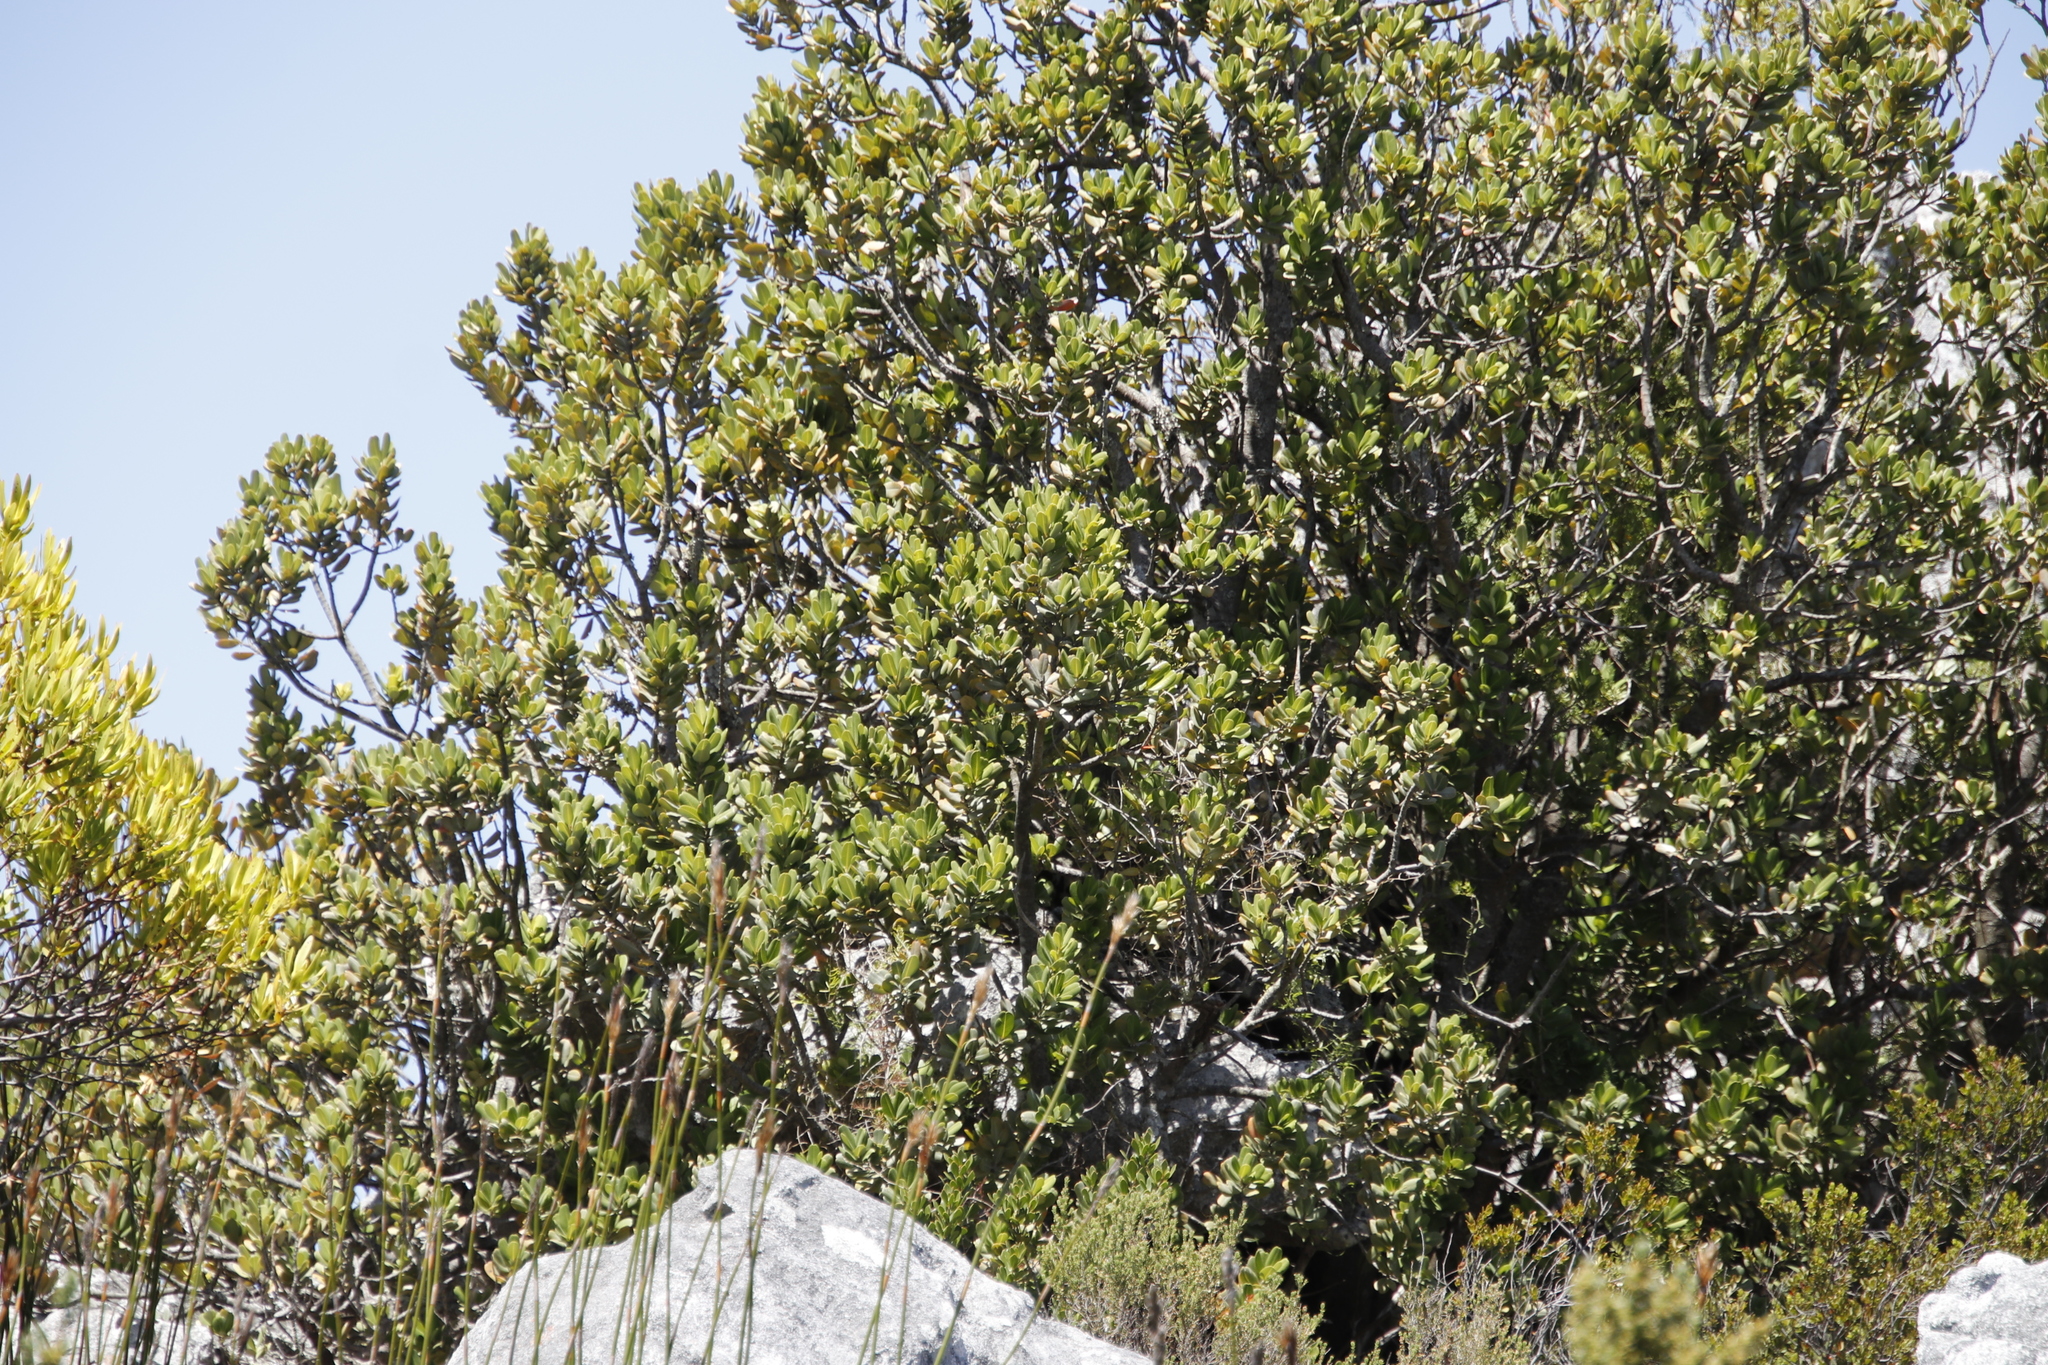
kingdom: Plantae
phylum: Tracheophyta
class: Magnoliopsida
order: Sapindales
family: Anacardiaceae
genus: Heeria
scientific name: Heeria argentea
